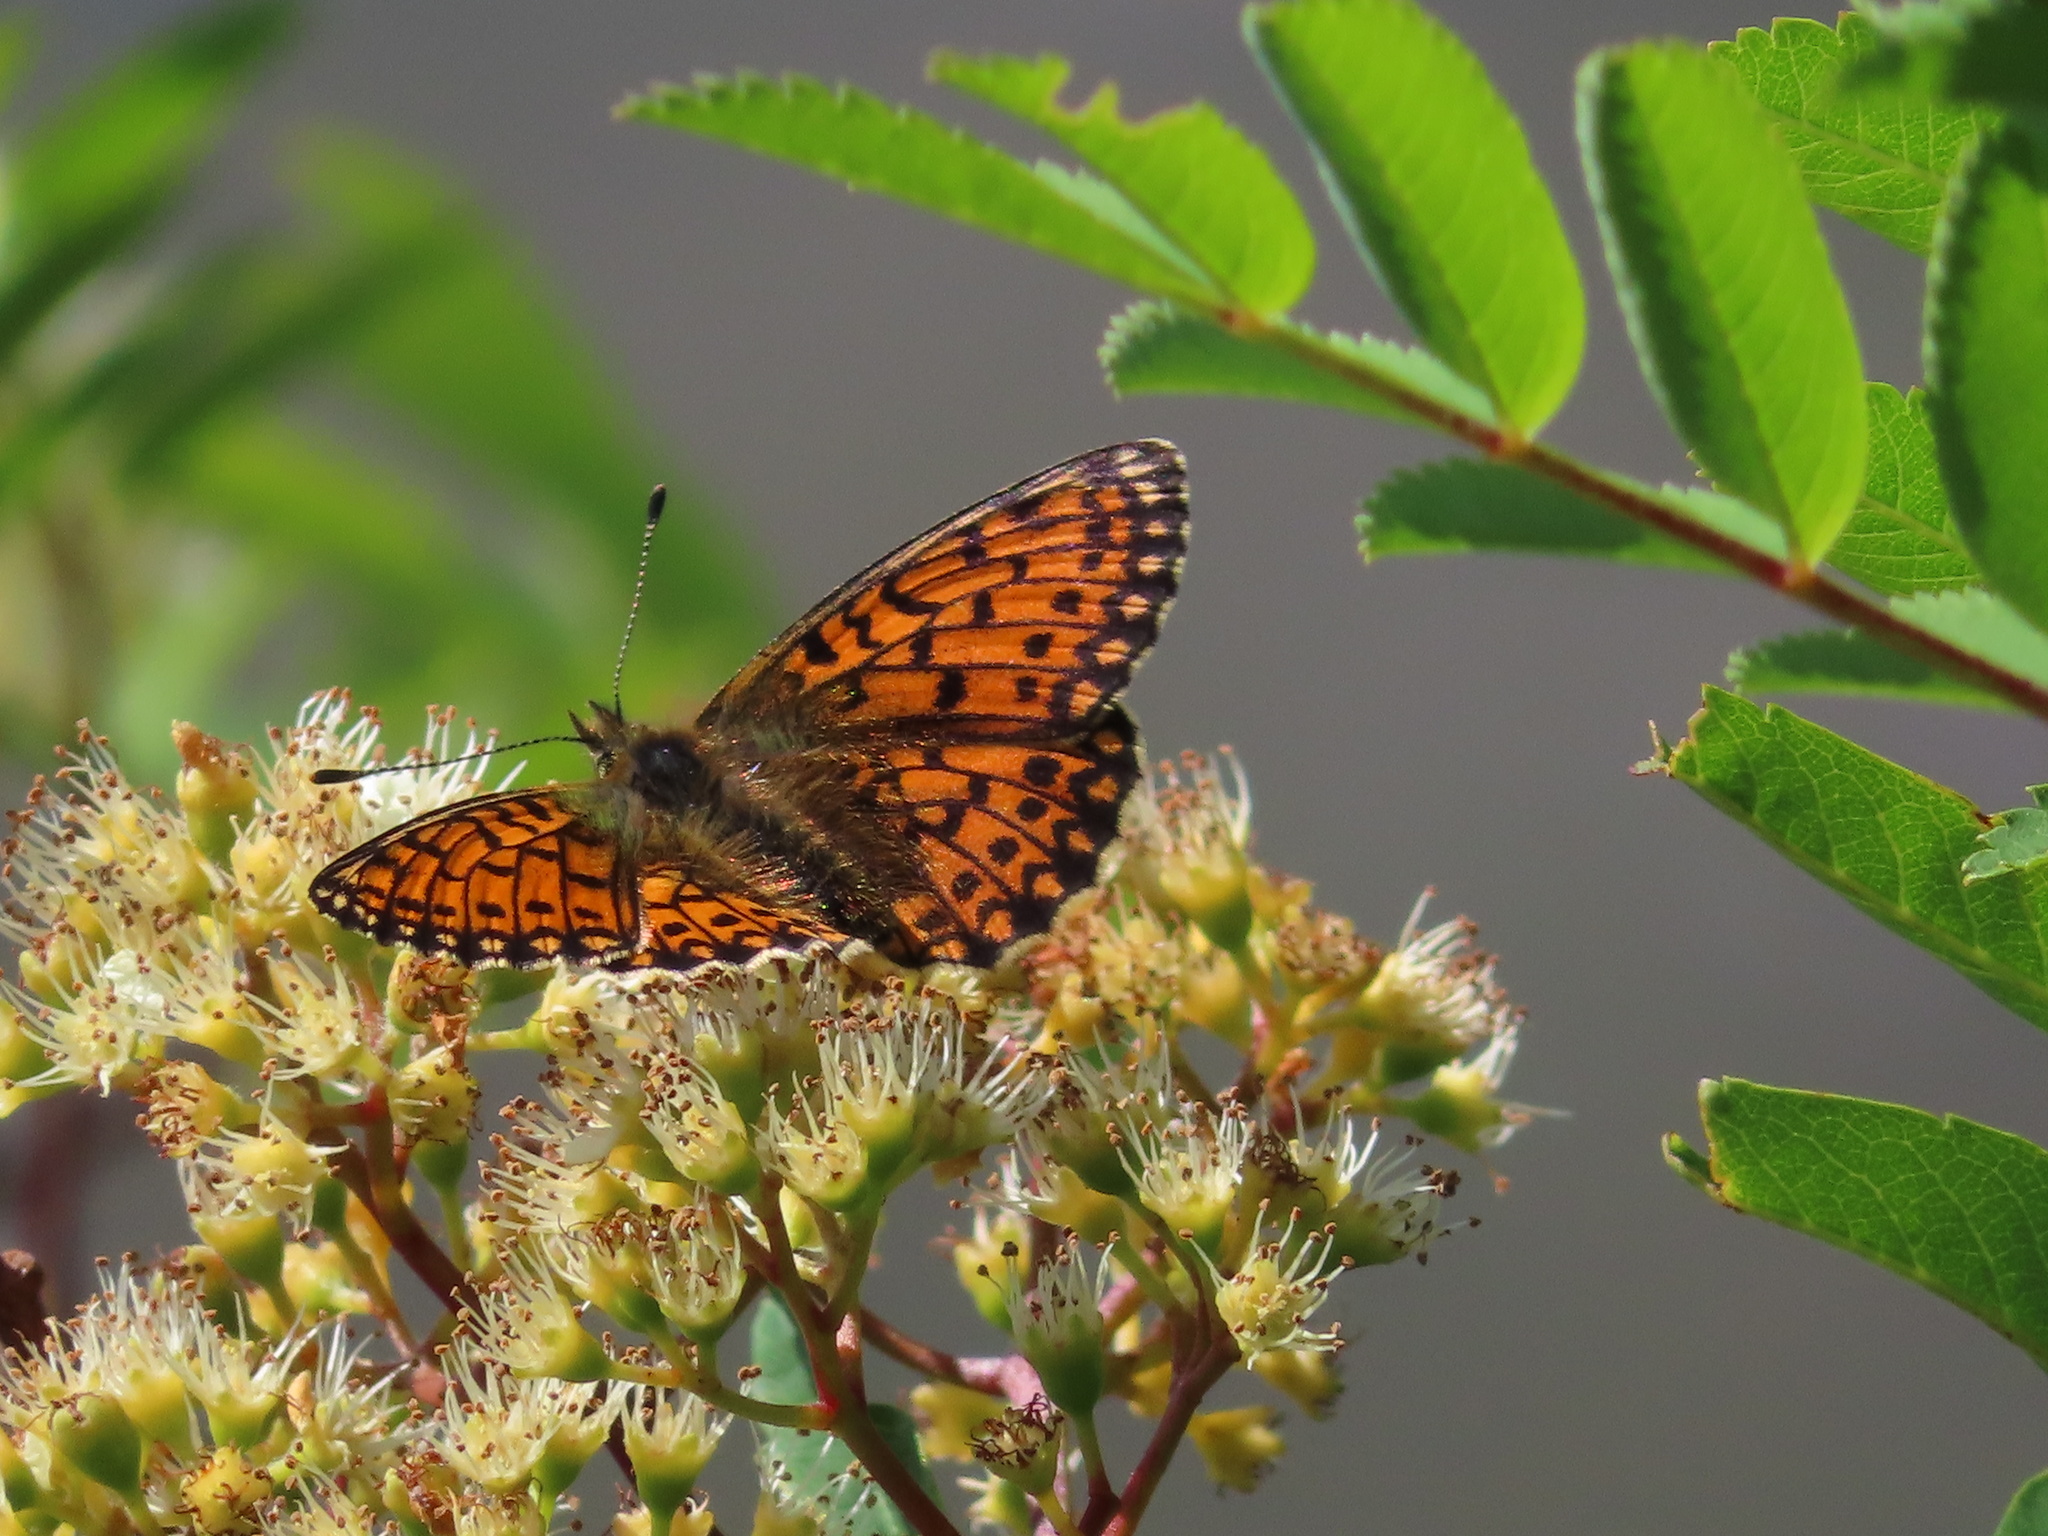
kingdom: Animalia
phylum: Arthropoda
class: Insecta
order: Lepidoptera
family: Nymphalidae
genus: Boloria
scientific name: Boloria selene
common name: Small pearl-bordered fritillary
